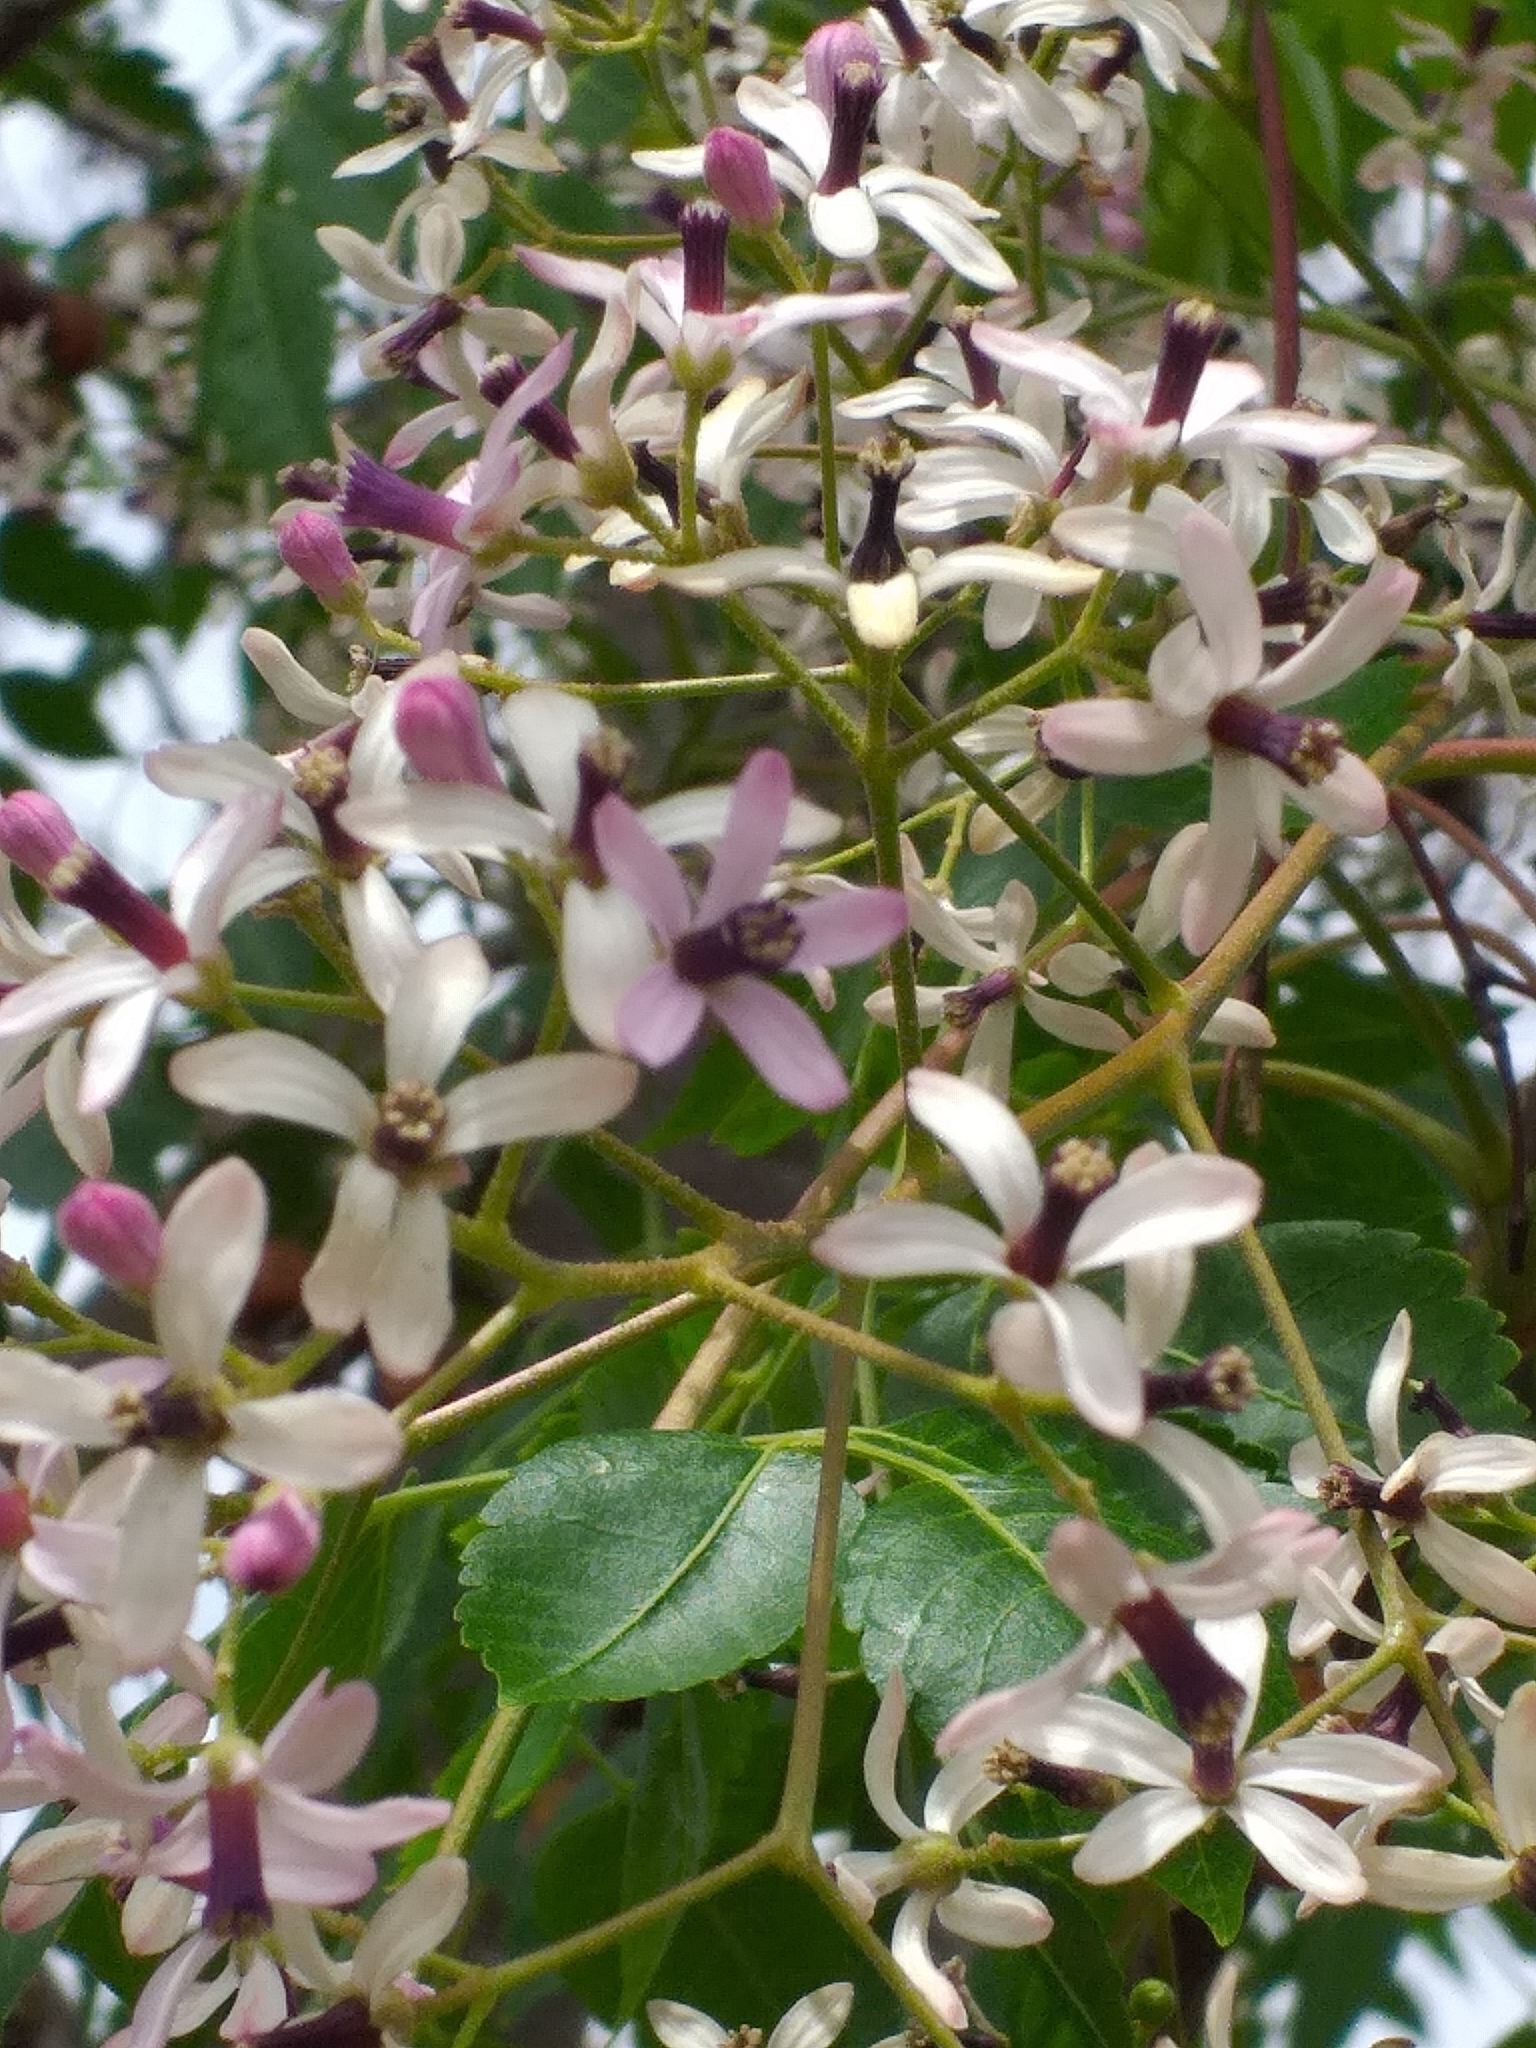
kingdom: Plantae
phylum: Tracheophyta
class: Magnoliopsida
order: Sapindales
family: Meliaceae
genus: Melia
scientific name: Melia azedarach
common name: Chinaberrytree
